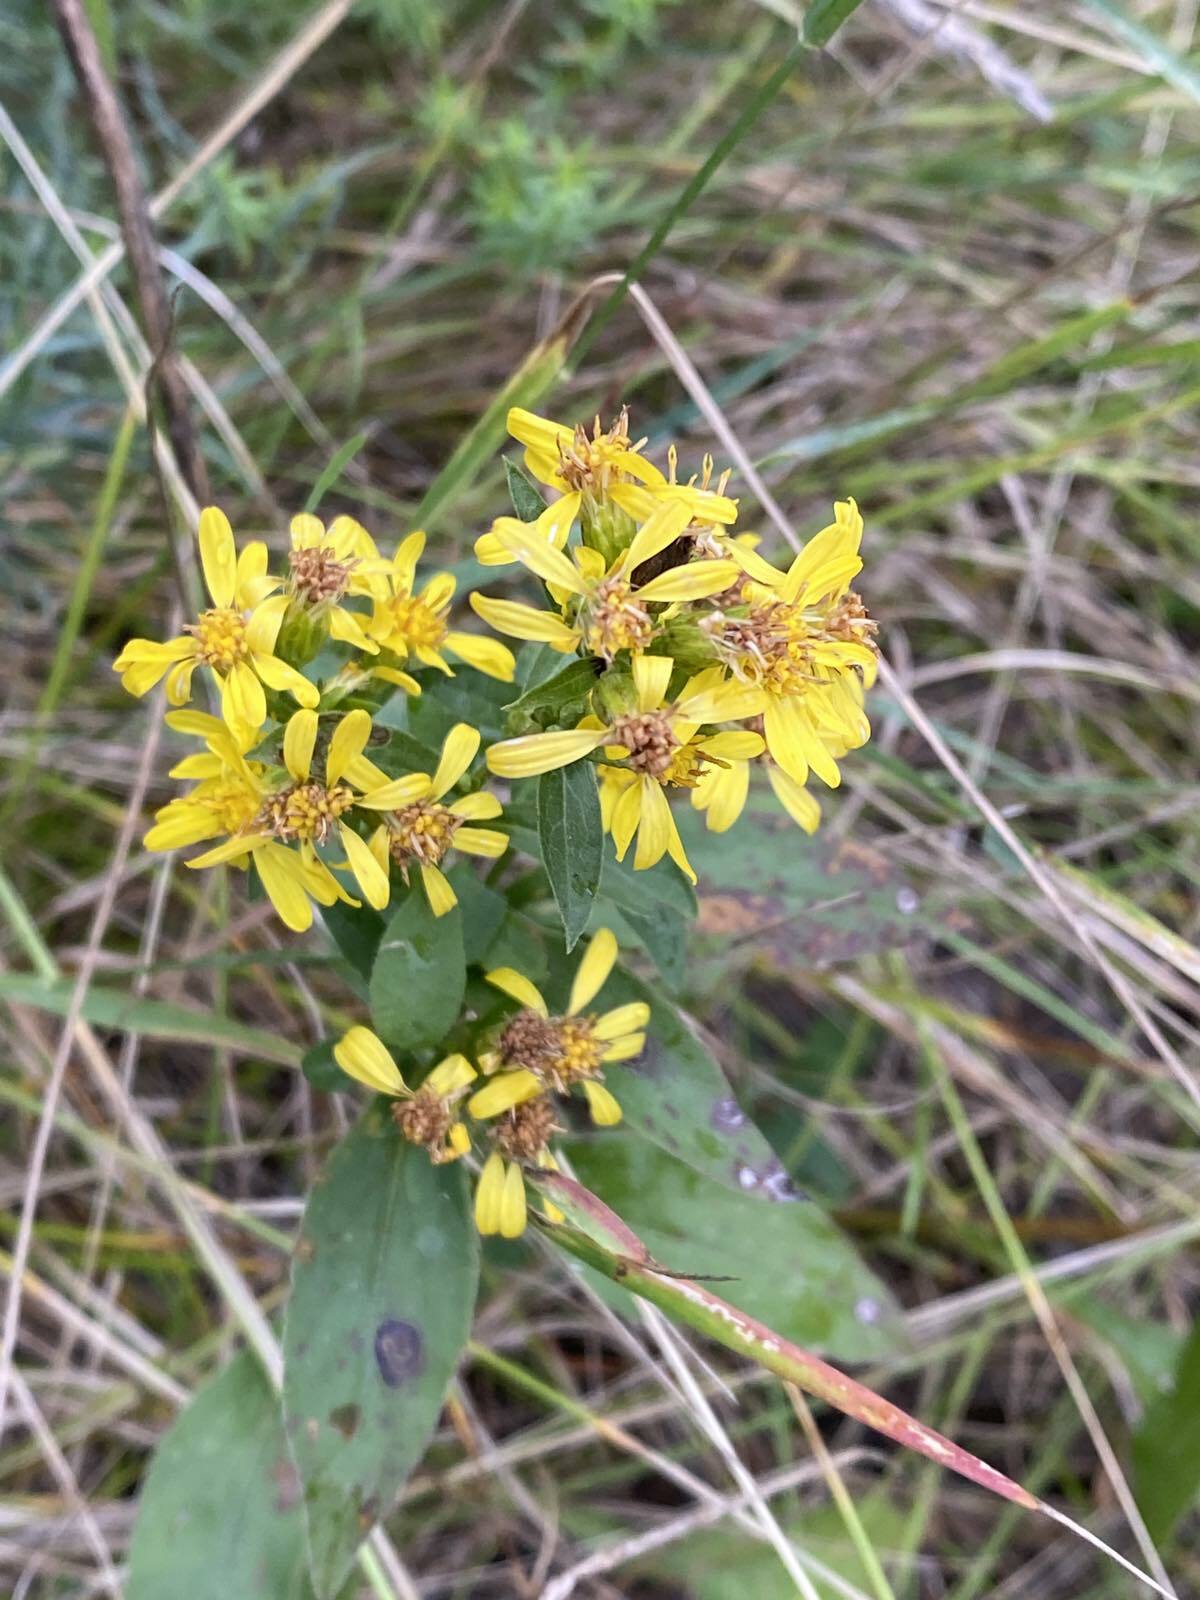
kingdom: Plantae
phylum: Tracheophyta
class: Magnoliopsida
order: Asterales
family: Asteraceae
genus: Solidago
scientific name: Solidago virgaurea
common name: Goldenrod
